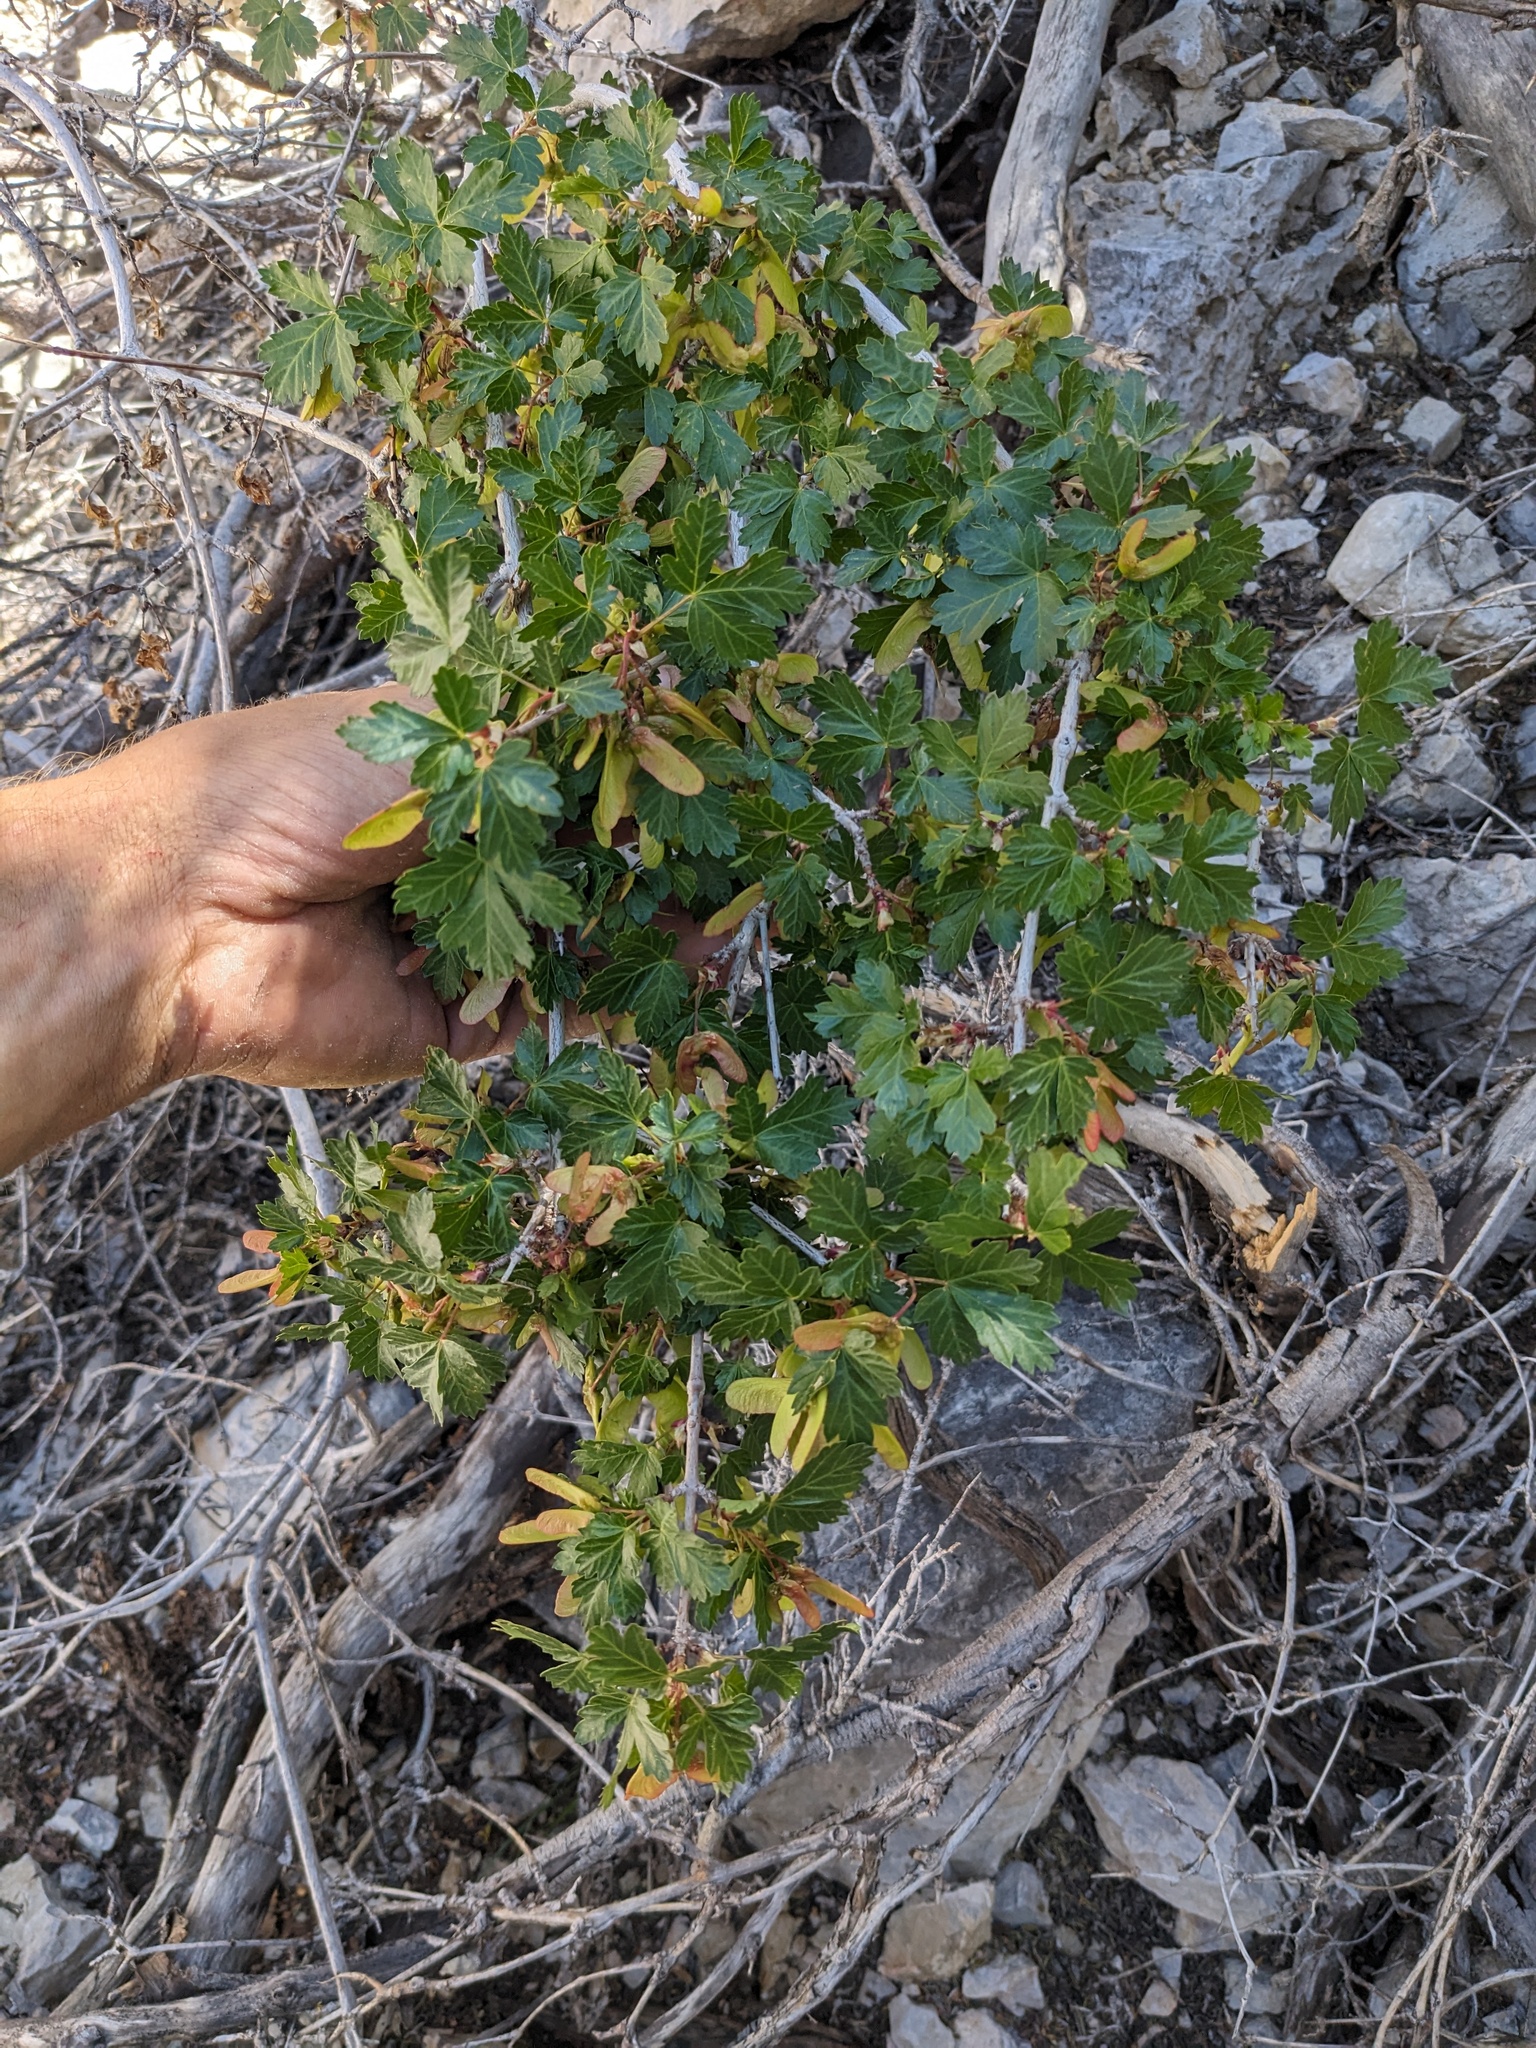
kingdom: Plantae
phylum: Tracheophyta
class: Magnoliopsida
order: Sapindales
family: Sapindaceae
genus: Acer
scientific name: Acer glabrum
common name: Rocky mountain maple
